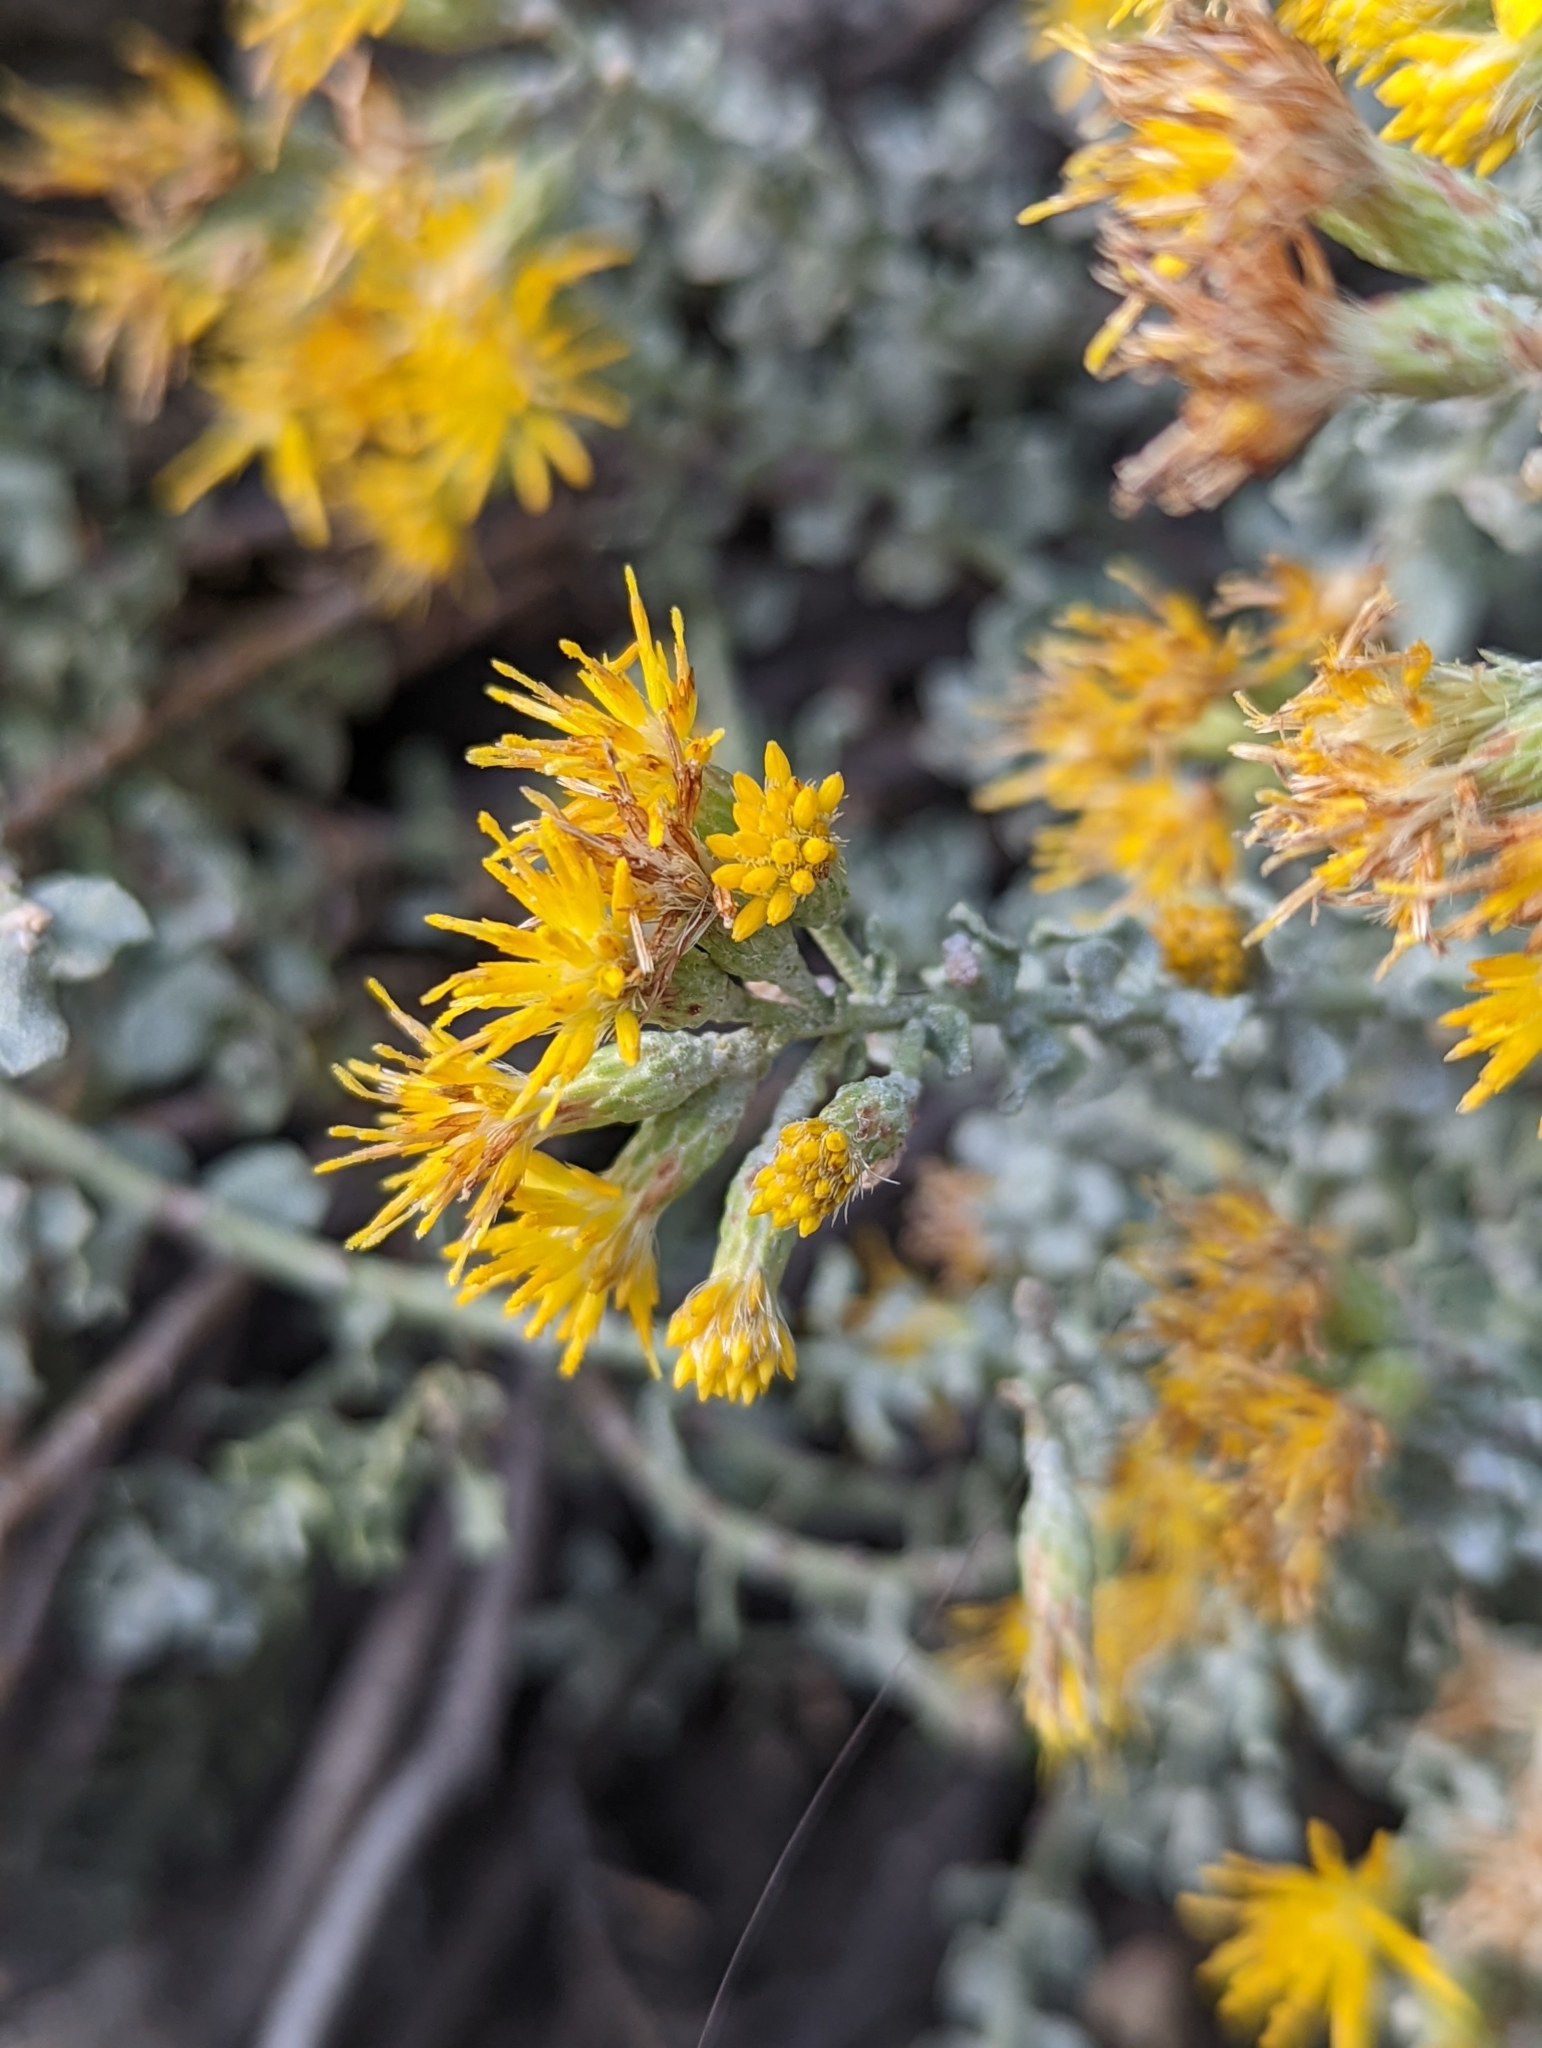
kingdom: Plantae
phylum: Tracheophyta
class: Magnoliopsida
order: Asterales
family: Asteraceae
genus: Ericameria
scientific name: Ericameria cuneata
